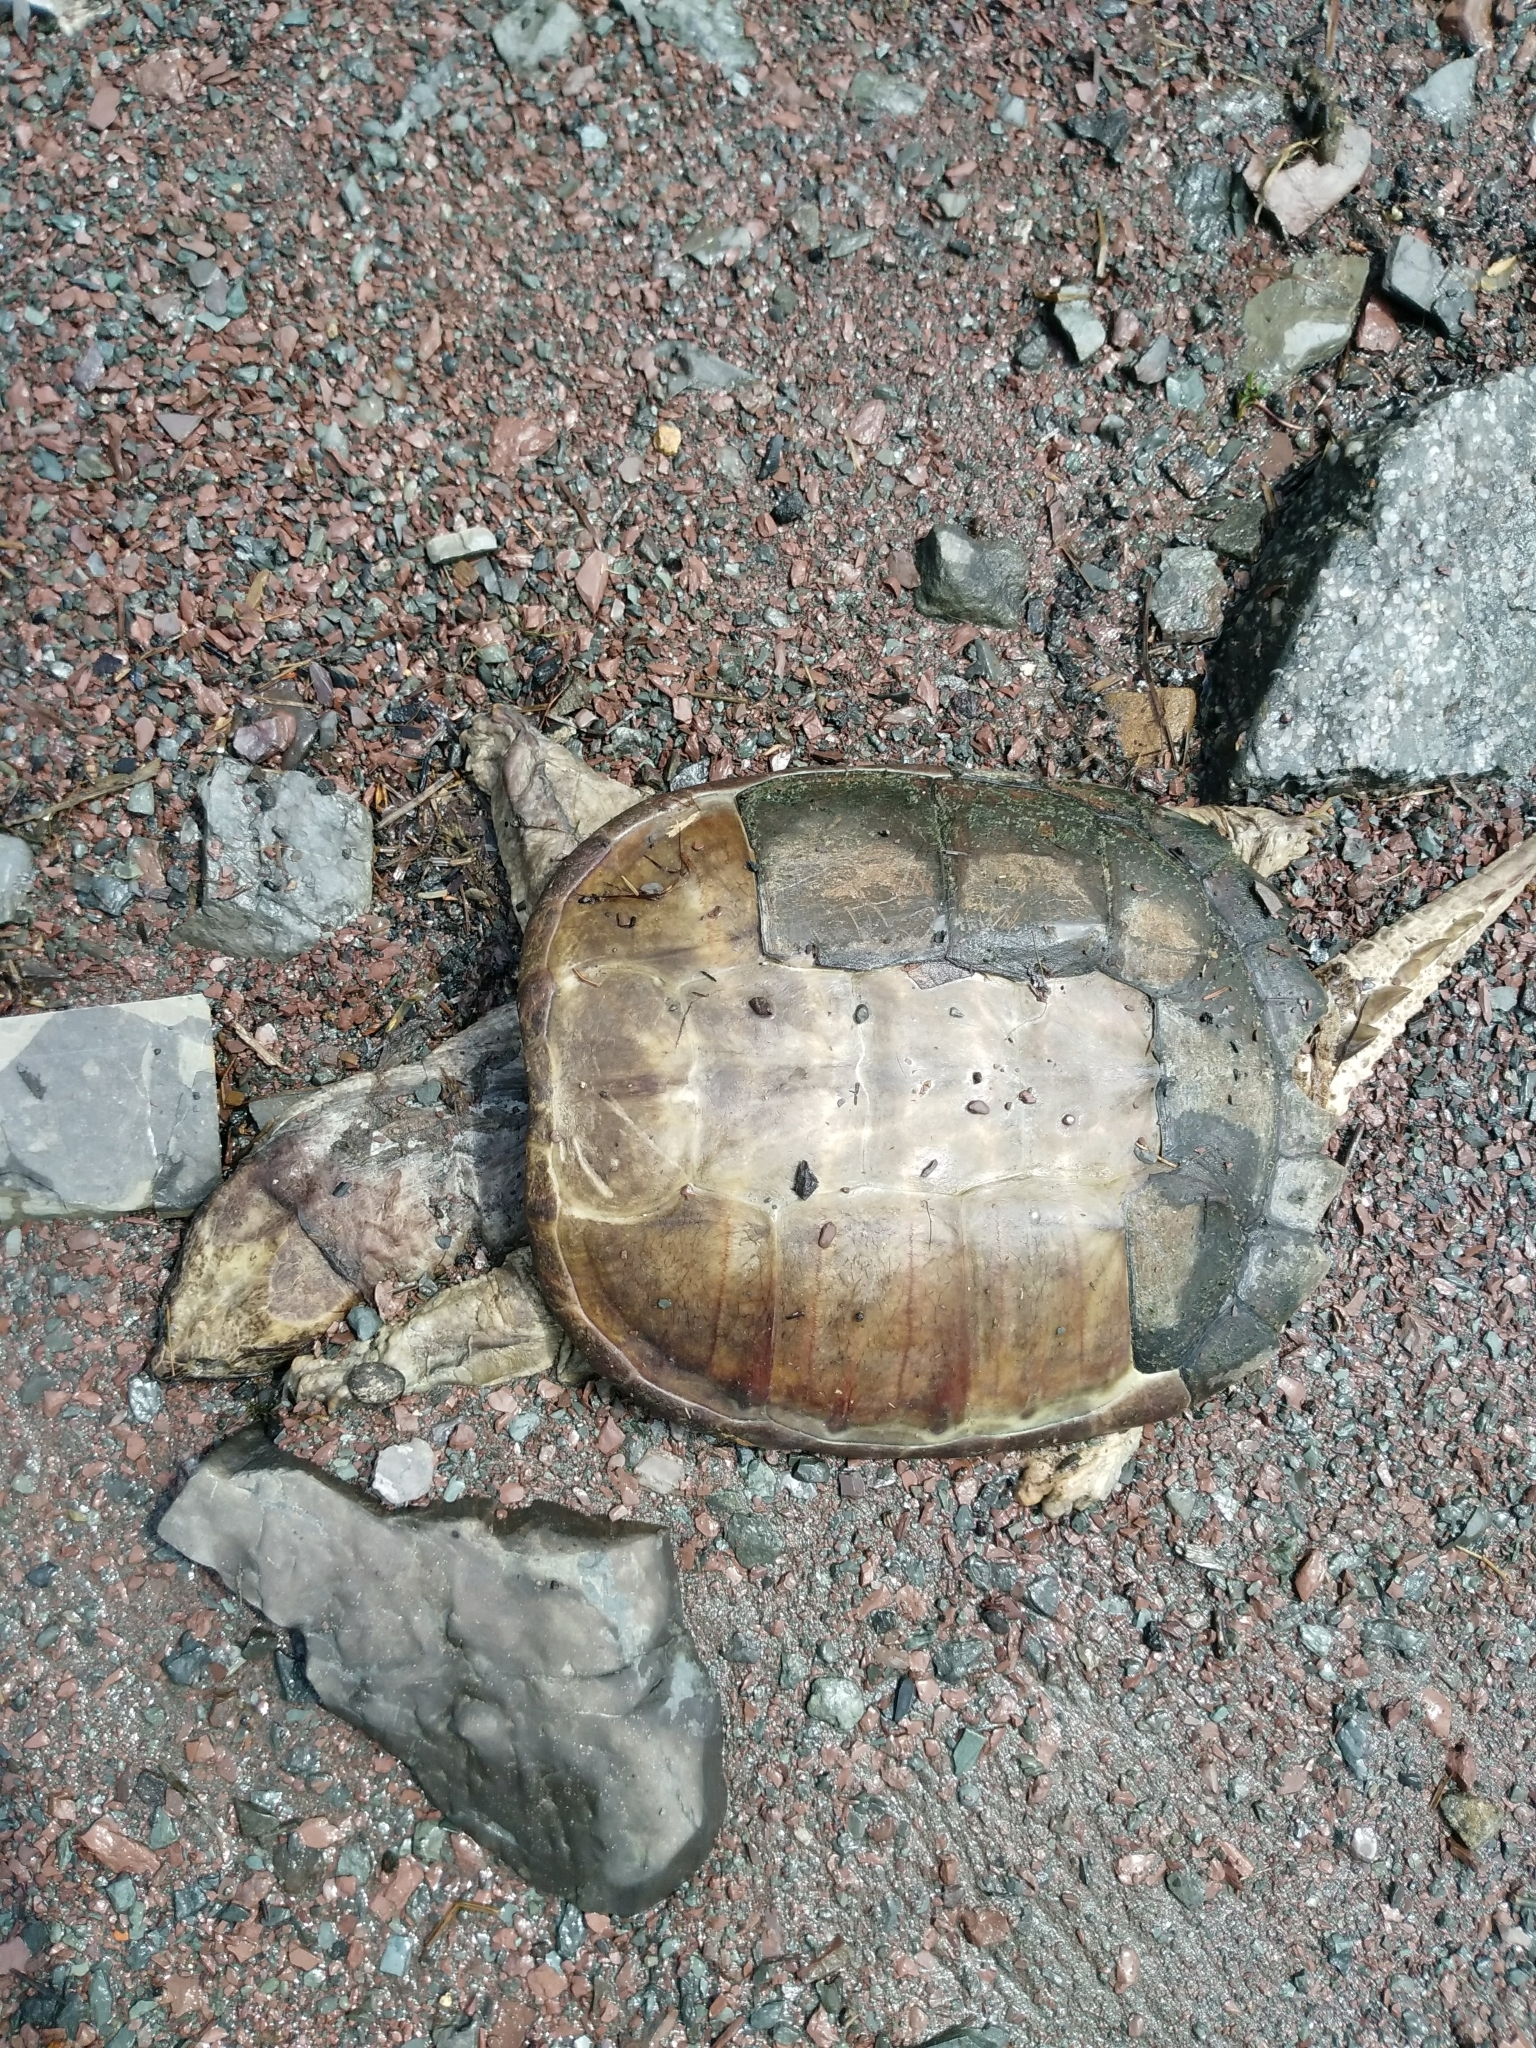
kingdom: Animalia
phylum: Chordata
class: Testudines
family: Chelydridae
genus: Chelydra
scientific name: Chelydra serpentina
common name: Common snapping turtle
